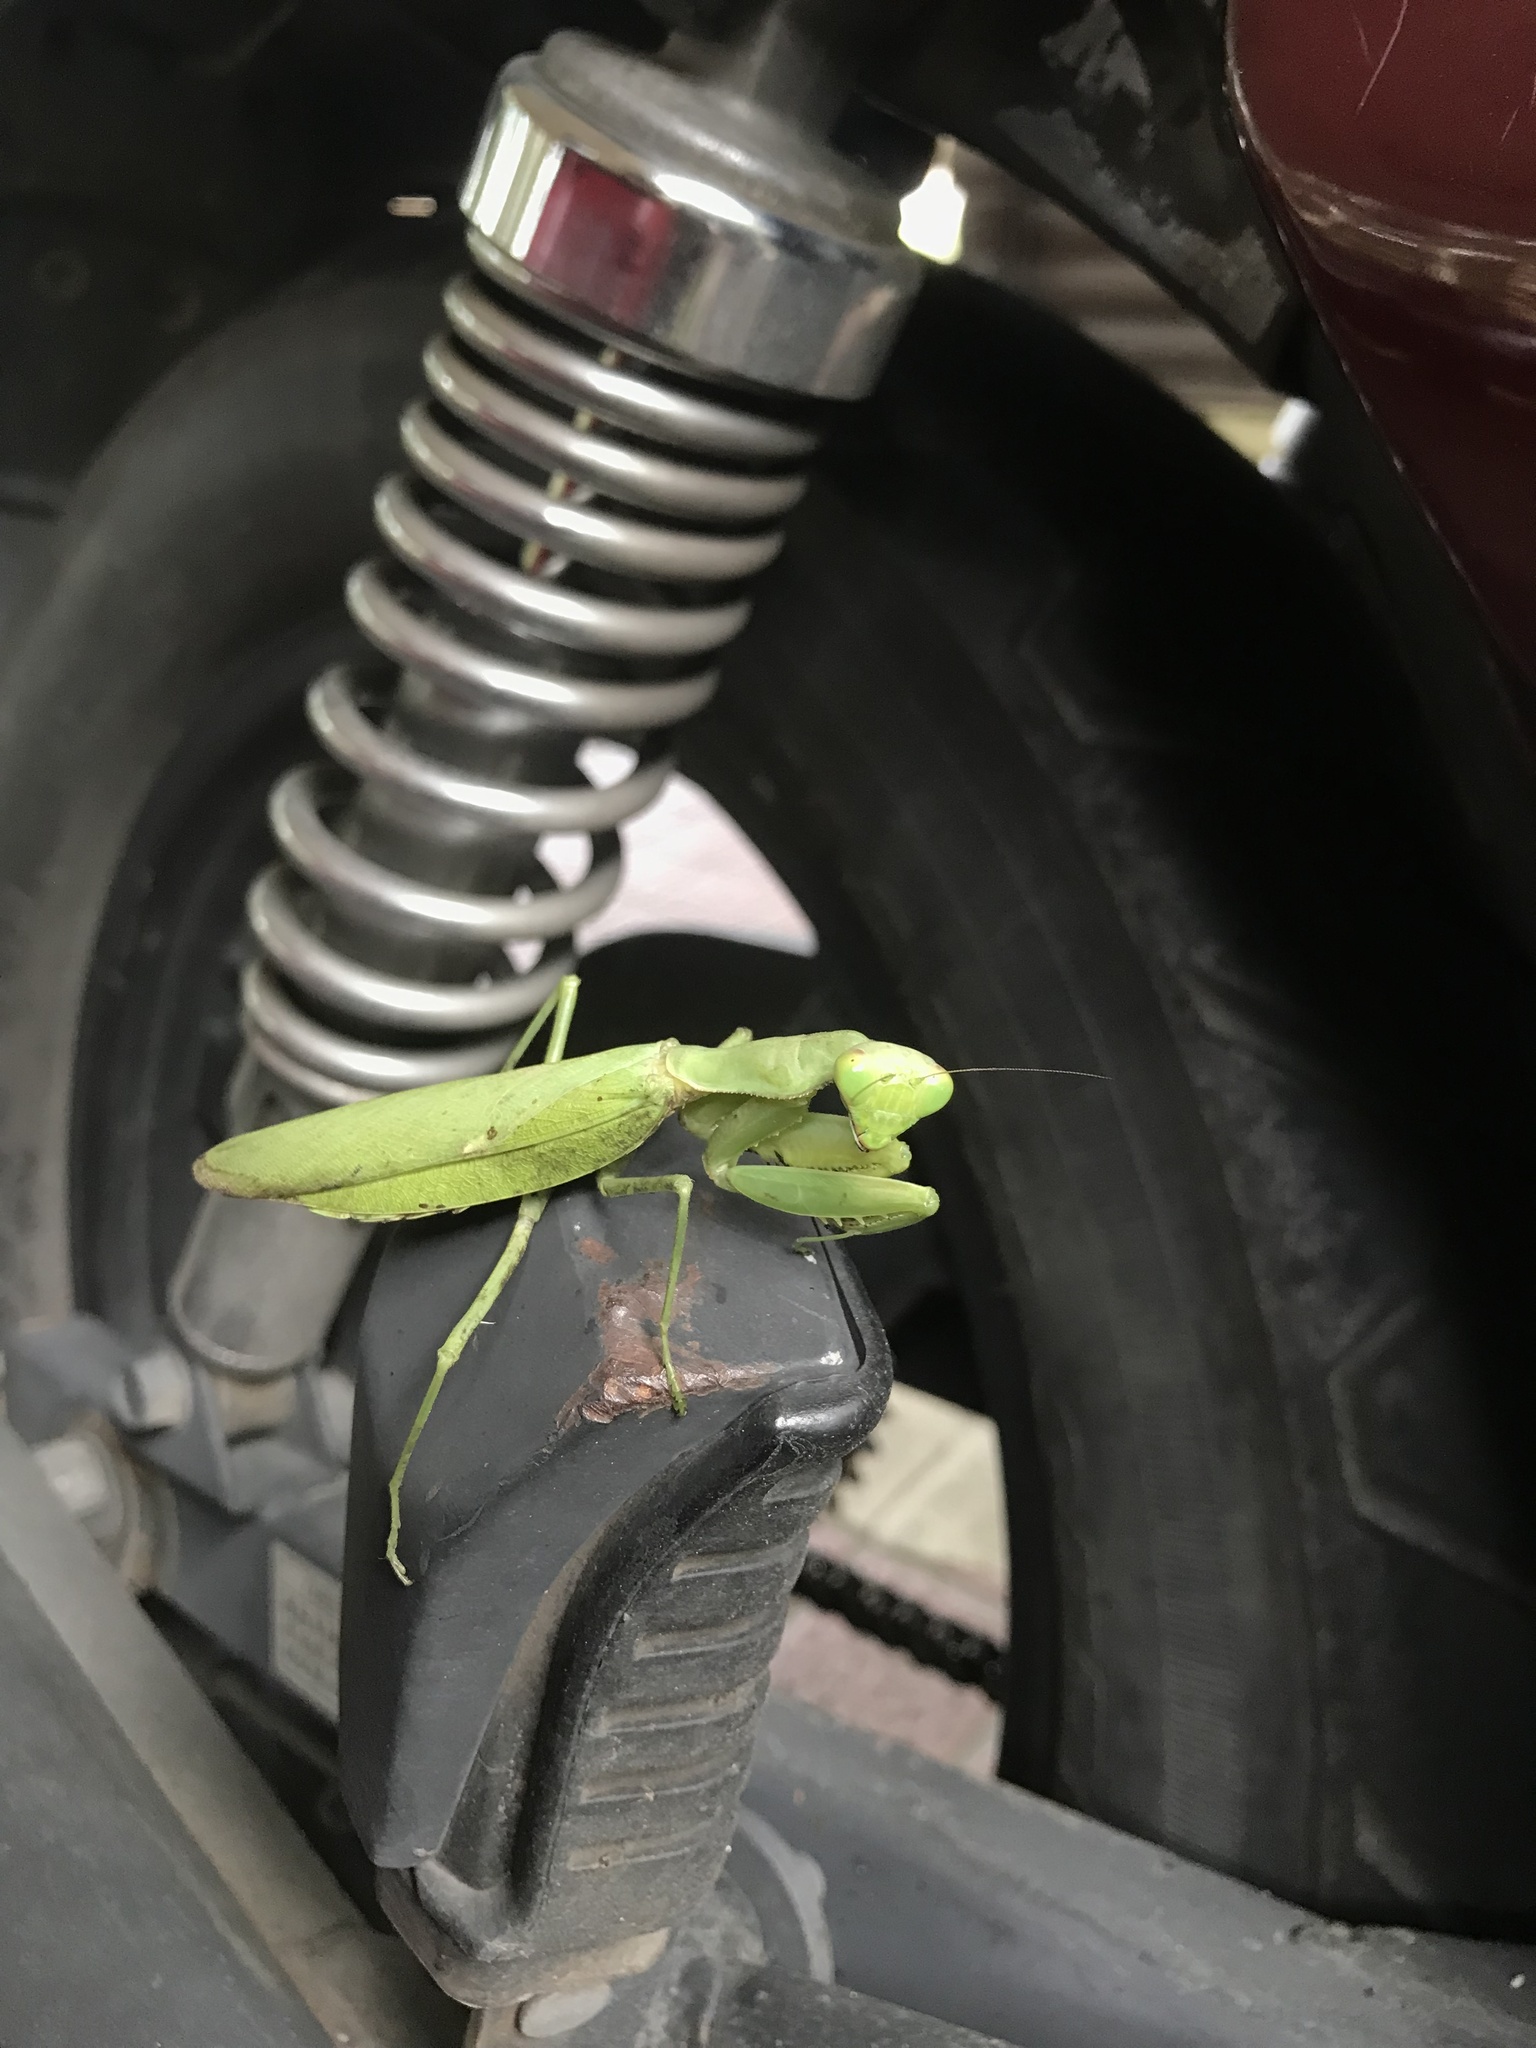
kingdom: Animalia
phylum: Arthropoda
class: Insecta
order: Mantodea
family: Mantidae
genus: Hierodula
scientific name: Hierodula patellifera
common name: Asian mantis
